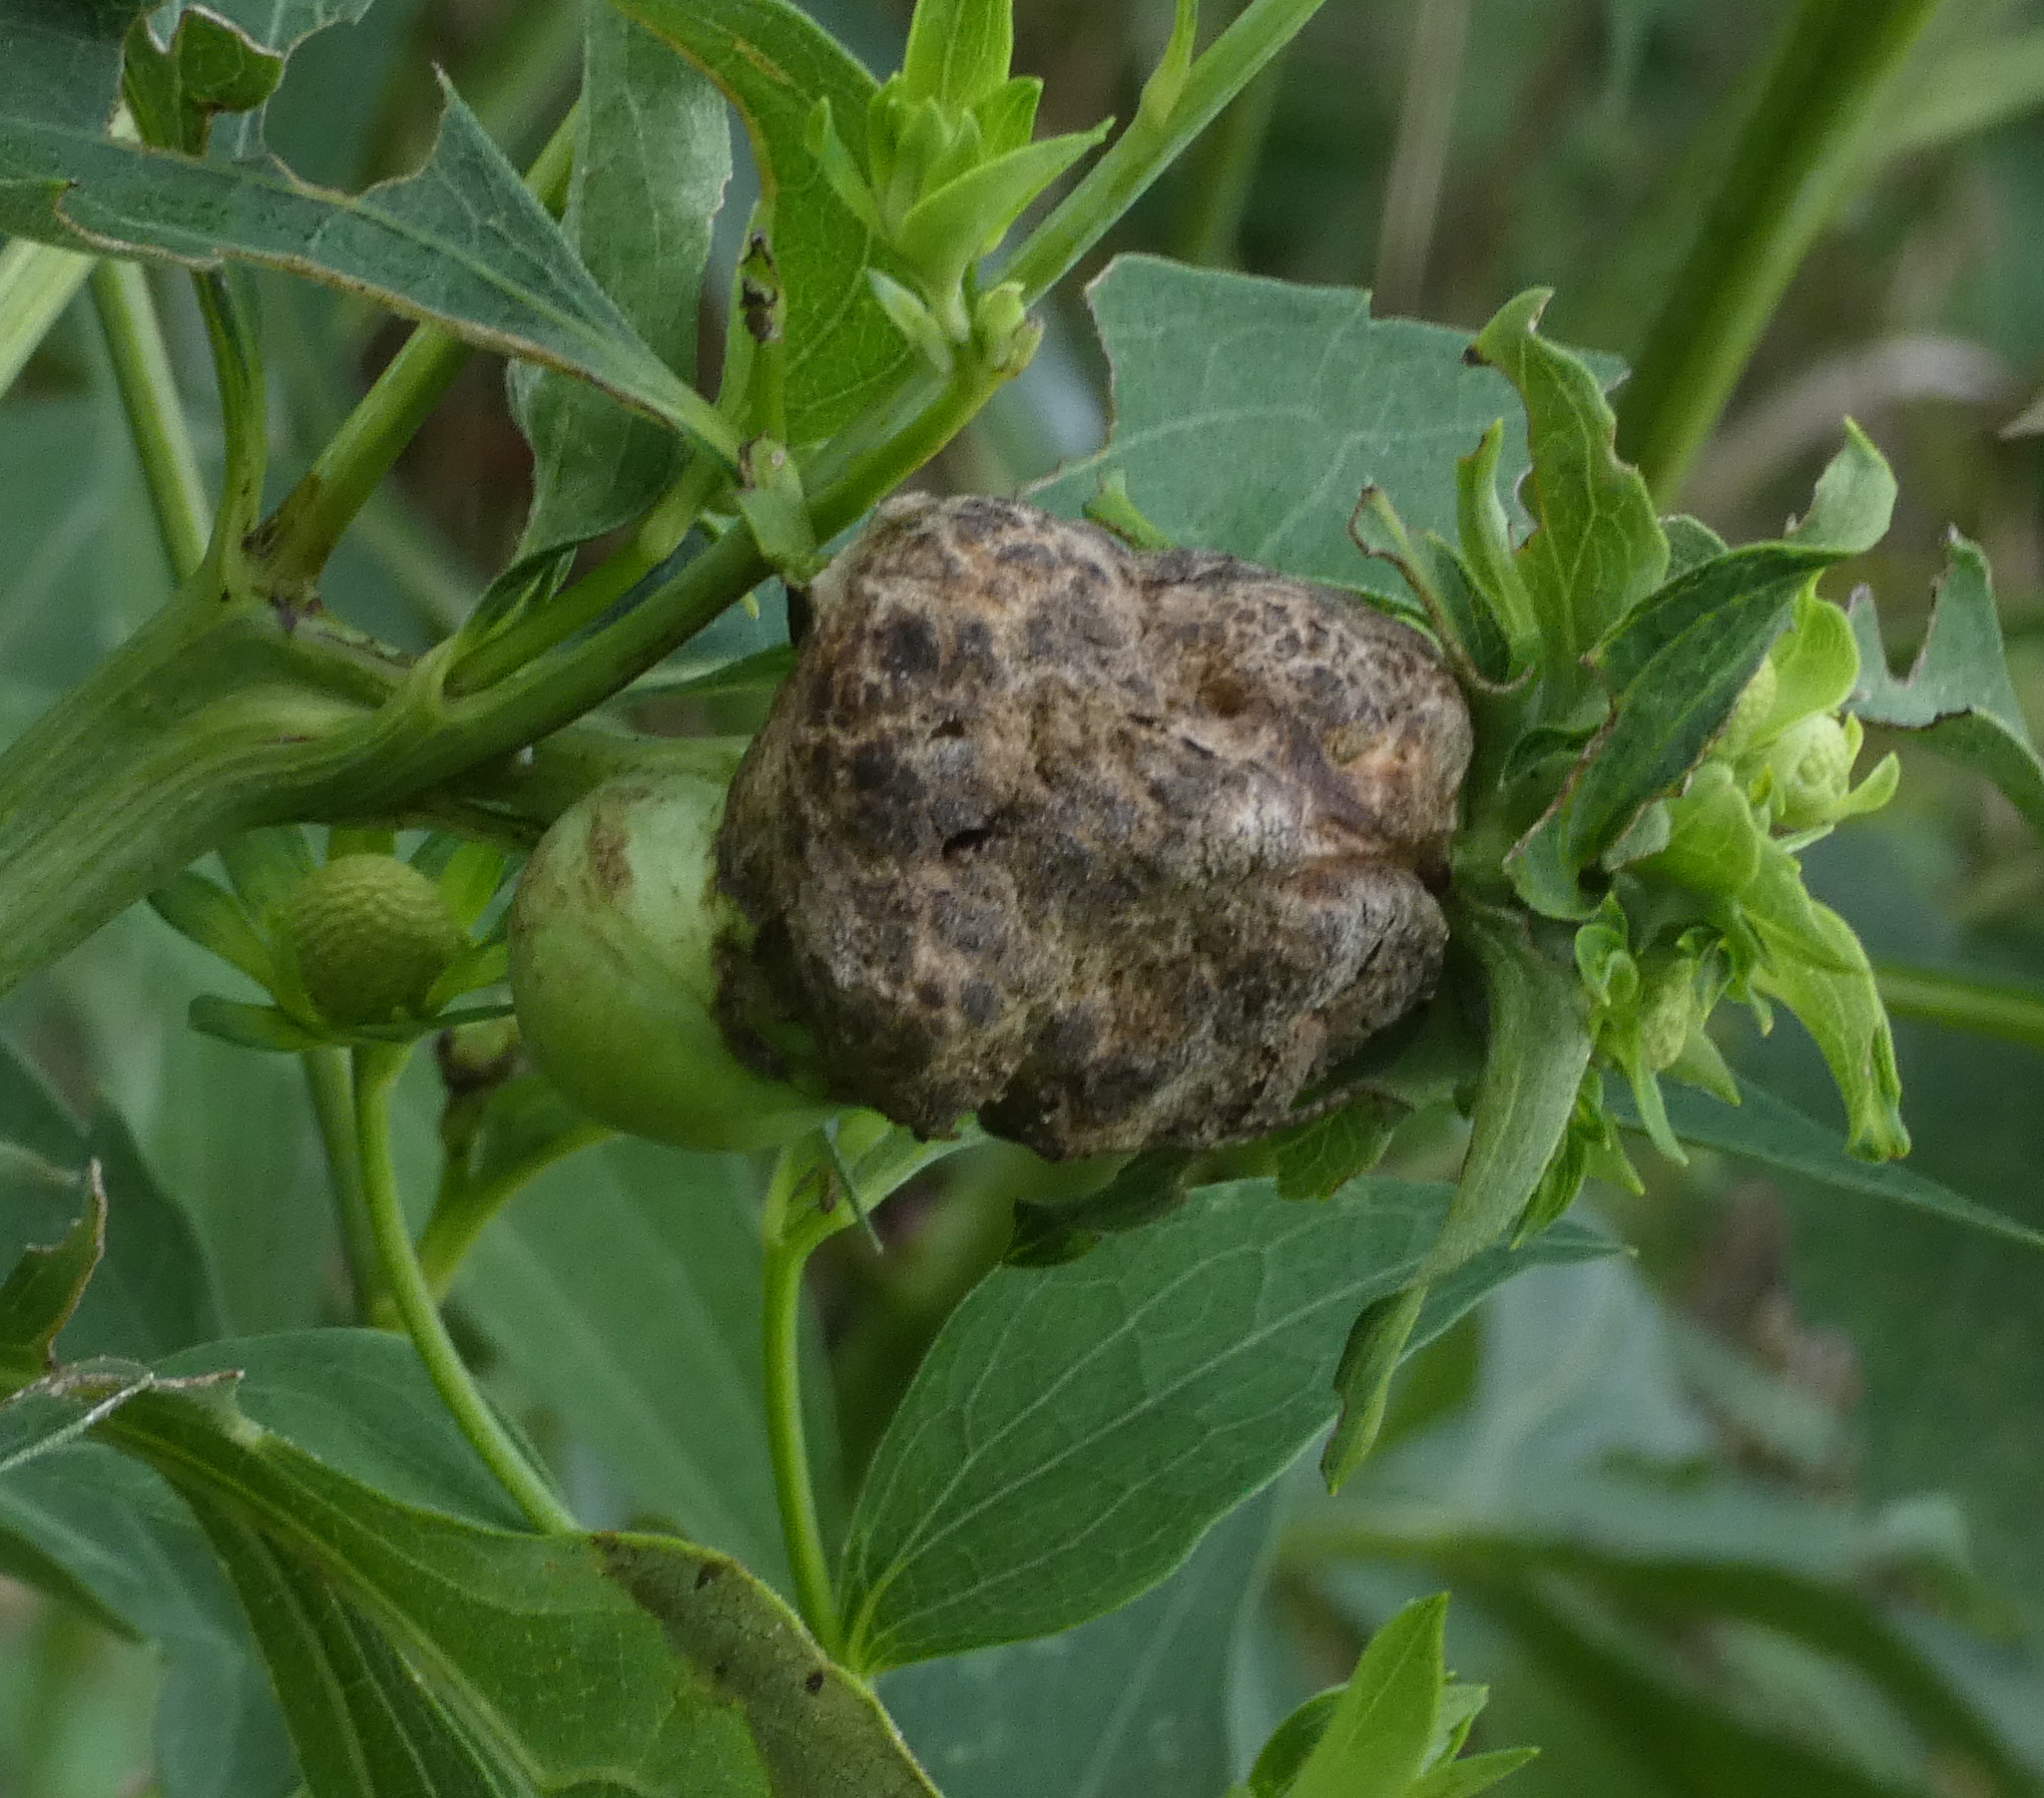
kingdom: Animalia
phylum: Arthropoda
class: Insecta
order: Diptera
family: Cecidomyiidae
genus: Asphondylia
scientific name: Asphondylia rudbeckiaeconspicua
